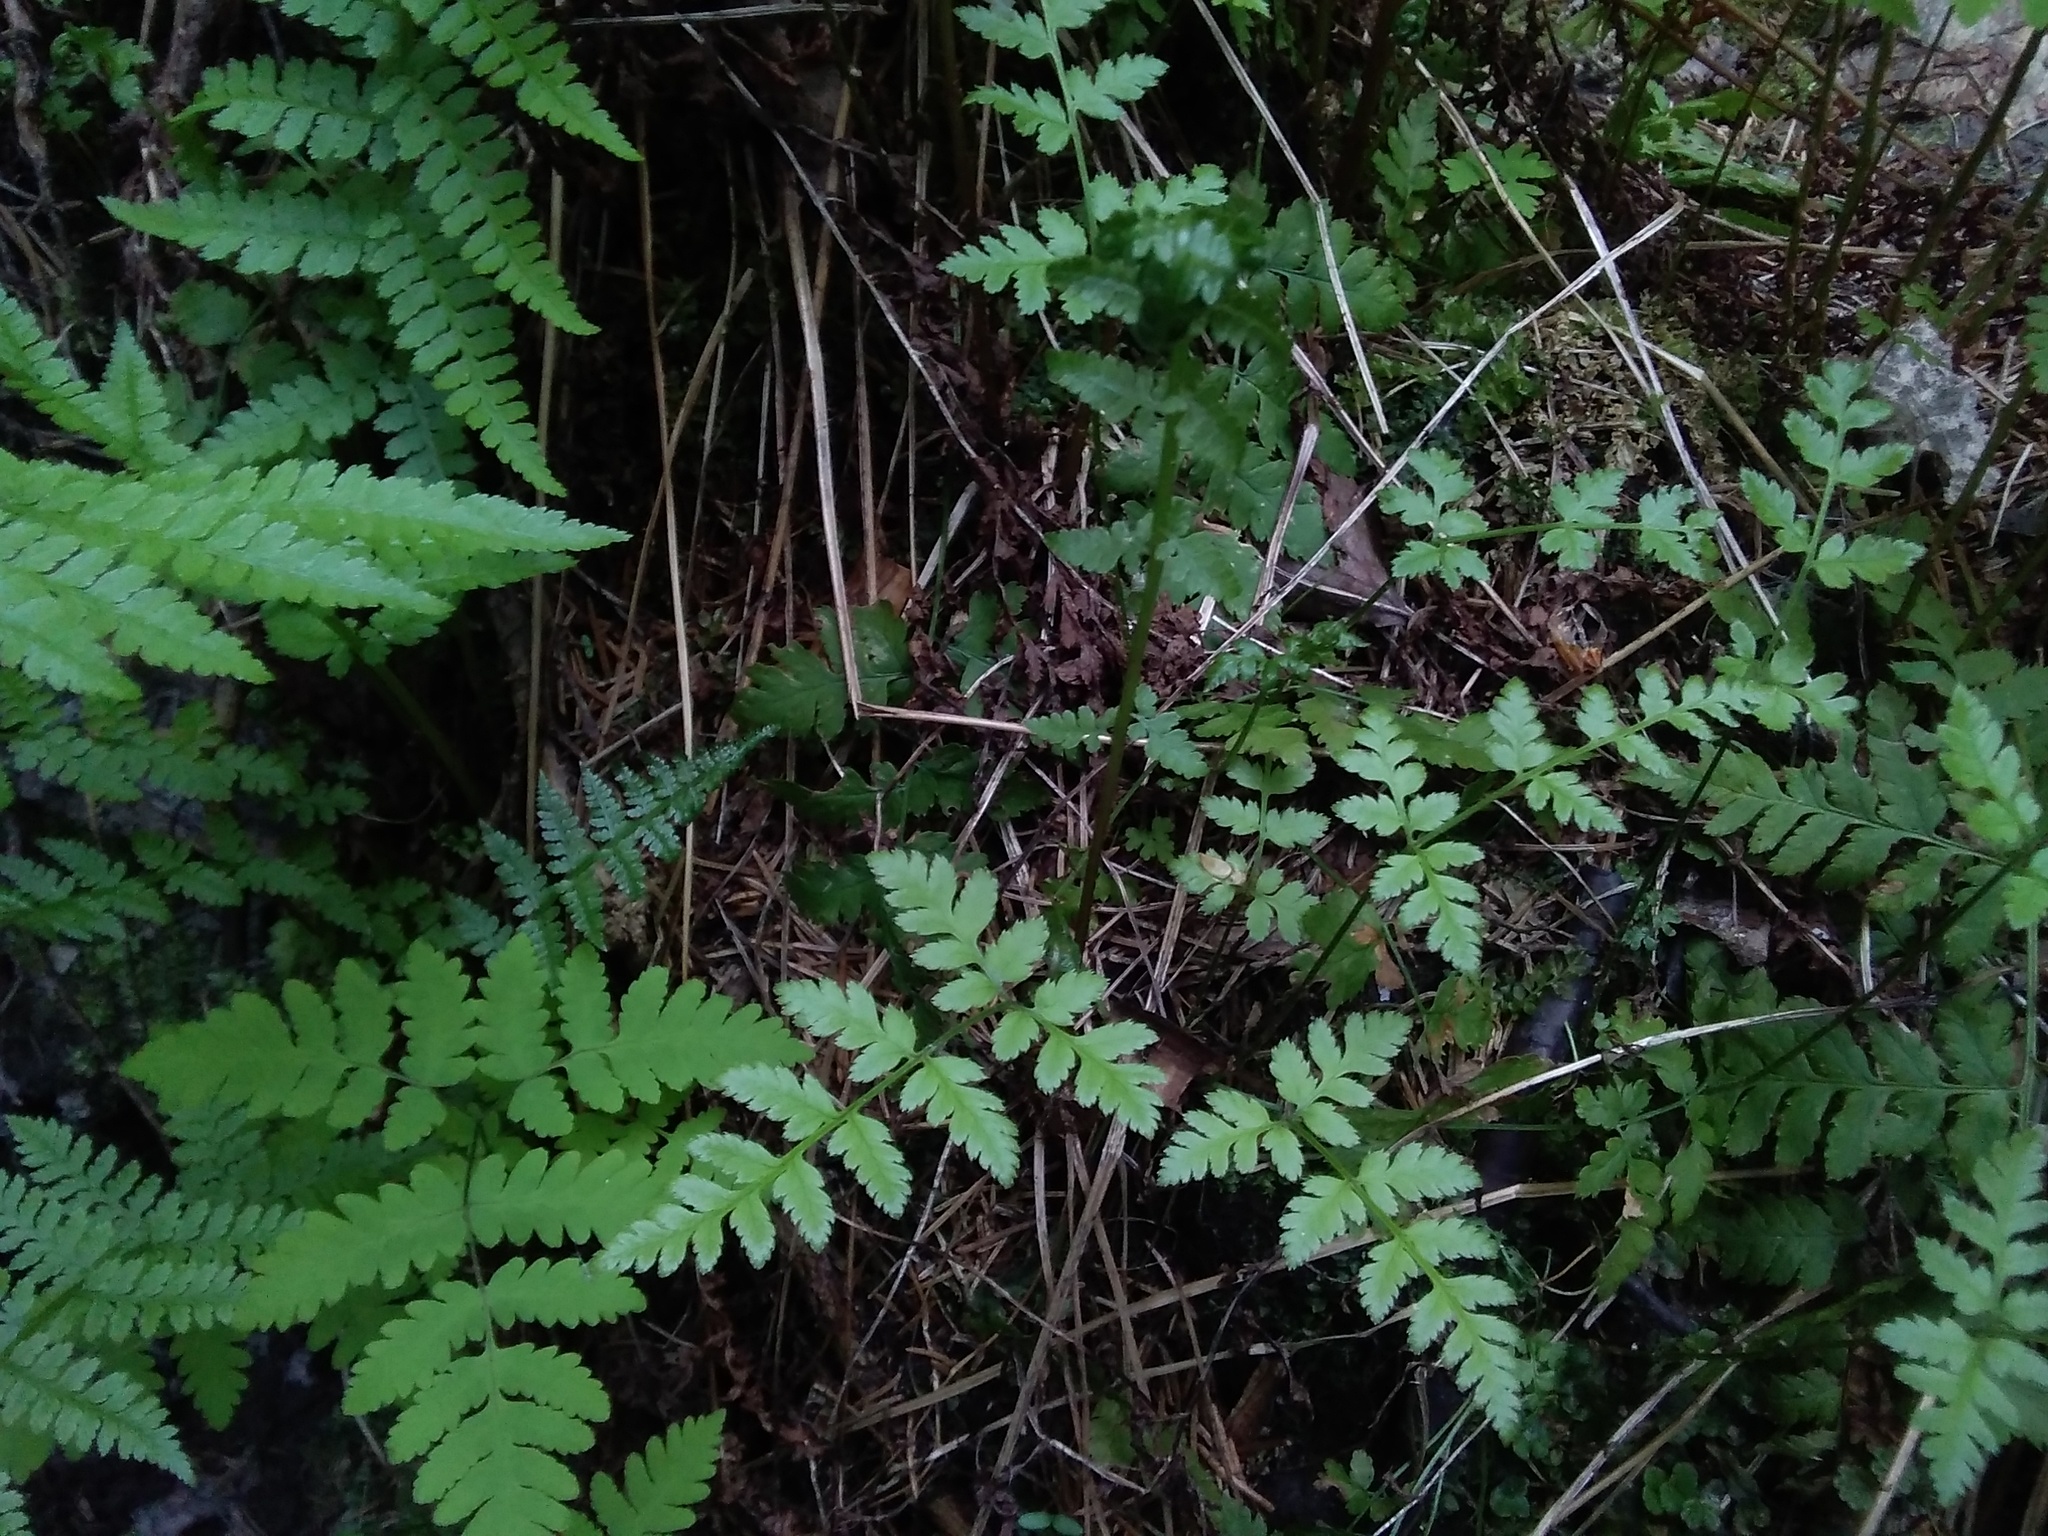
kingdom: Plantae
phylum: Tracheophyta
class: Polypodiopsida
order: Polypodiales
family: Cystopteridaceae
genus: Gymnocarpium
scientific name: Gymnocarpium dryopteris
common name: Oak fern
